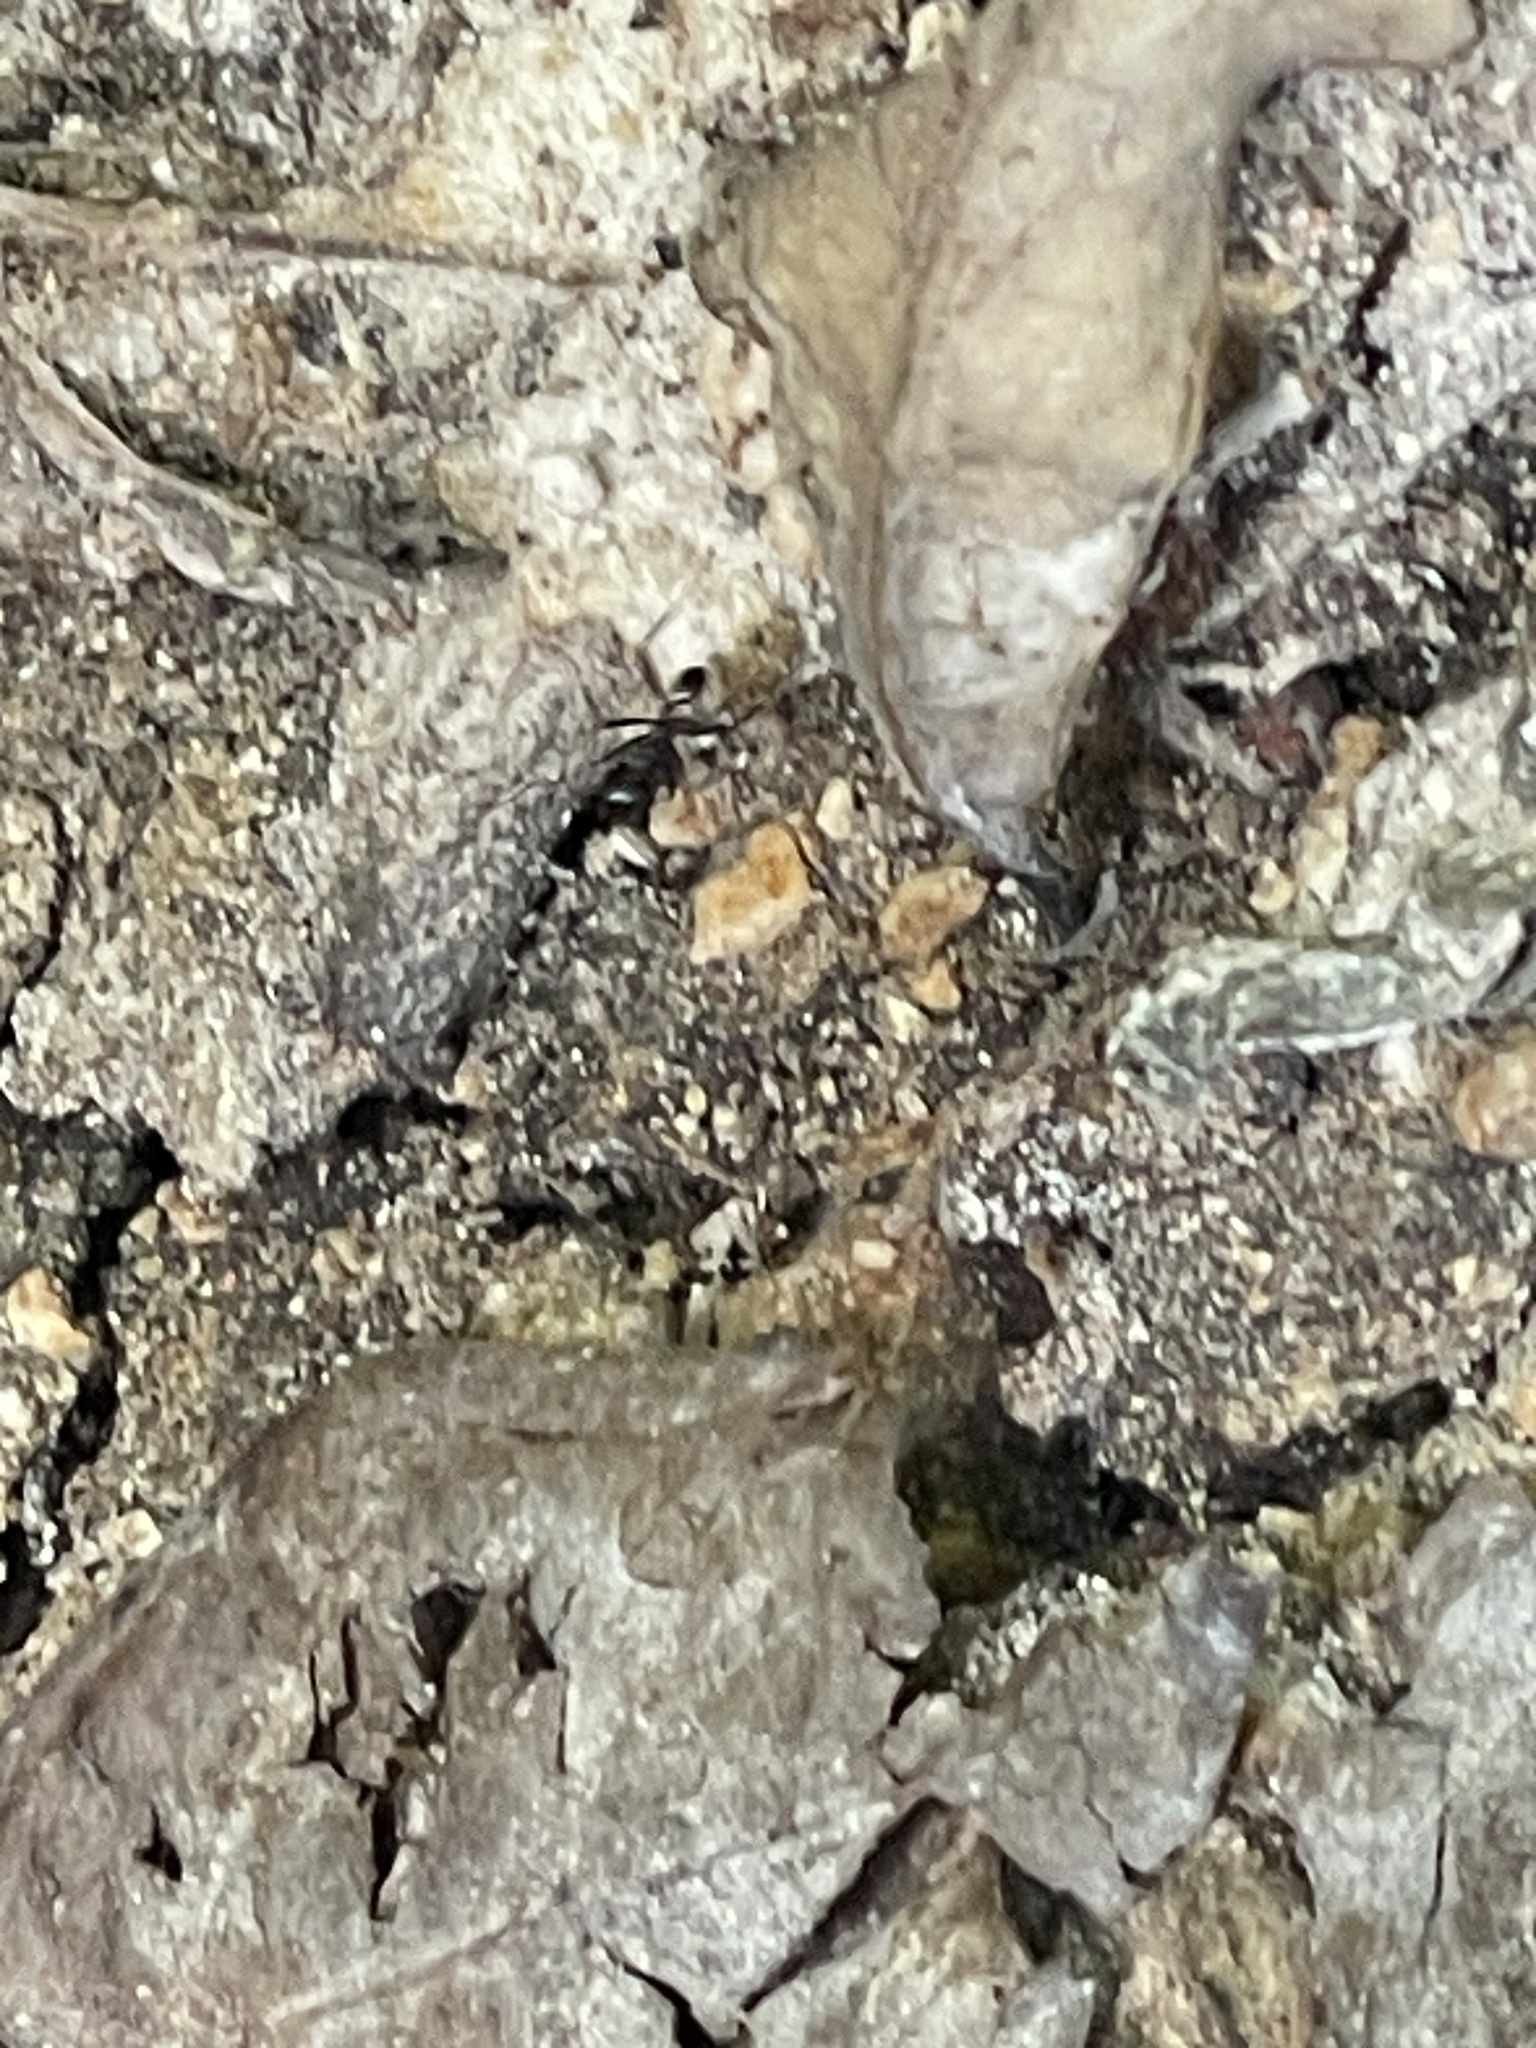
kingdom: Animalia
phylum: Arthropoda
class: Insecta
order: Hymenoptera
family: Formicidae
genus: Paratrechina
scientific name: Paratrechina longicornis
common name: Longhorned crazy ant
